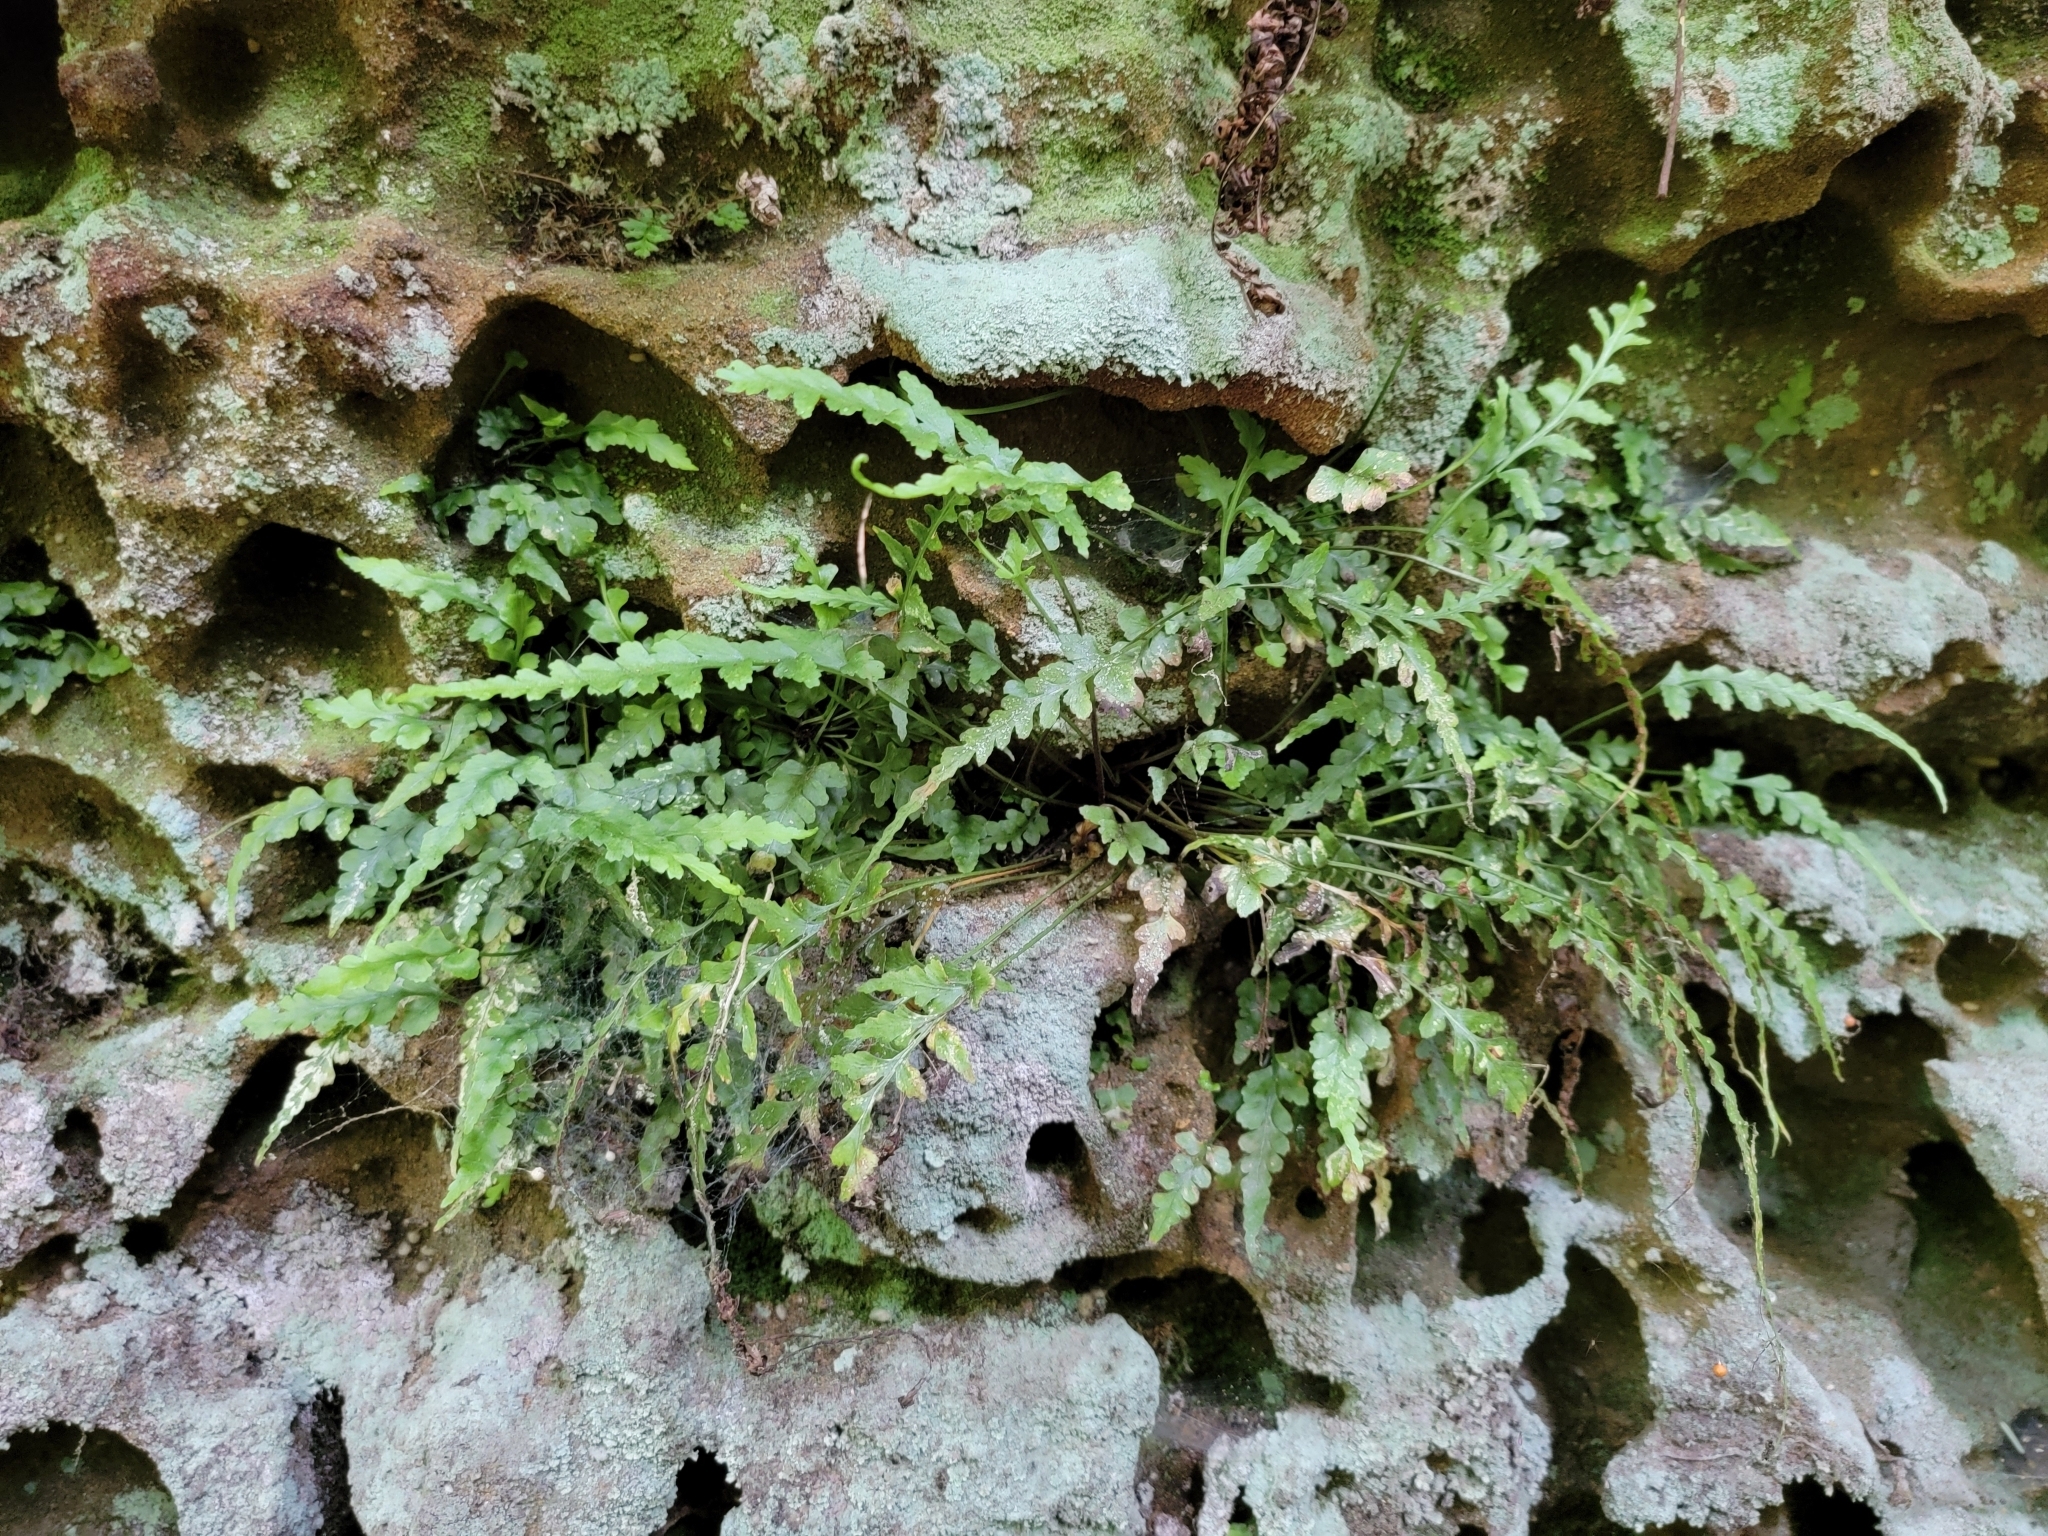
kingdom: Plantae
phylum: Tracheophyta
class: Polypodiopsida
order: Polypodiales
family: Aspleniaceae
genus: Asplenium
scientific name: Asplenium pinnatifidum
